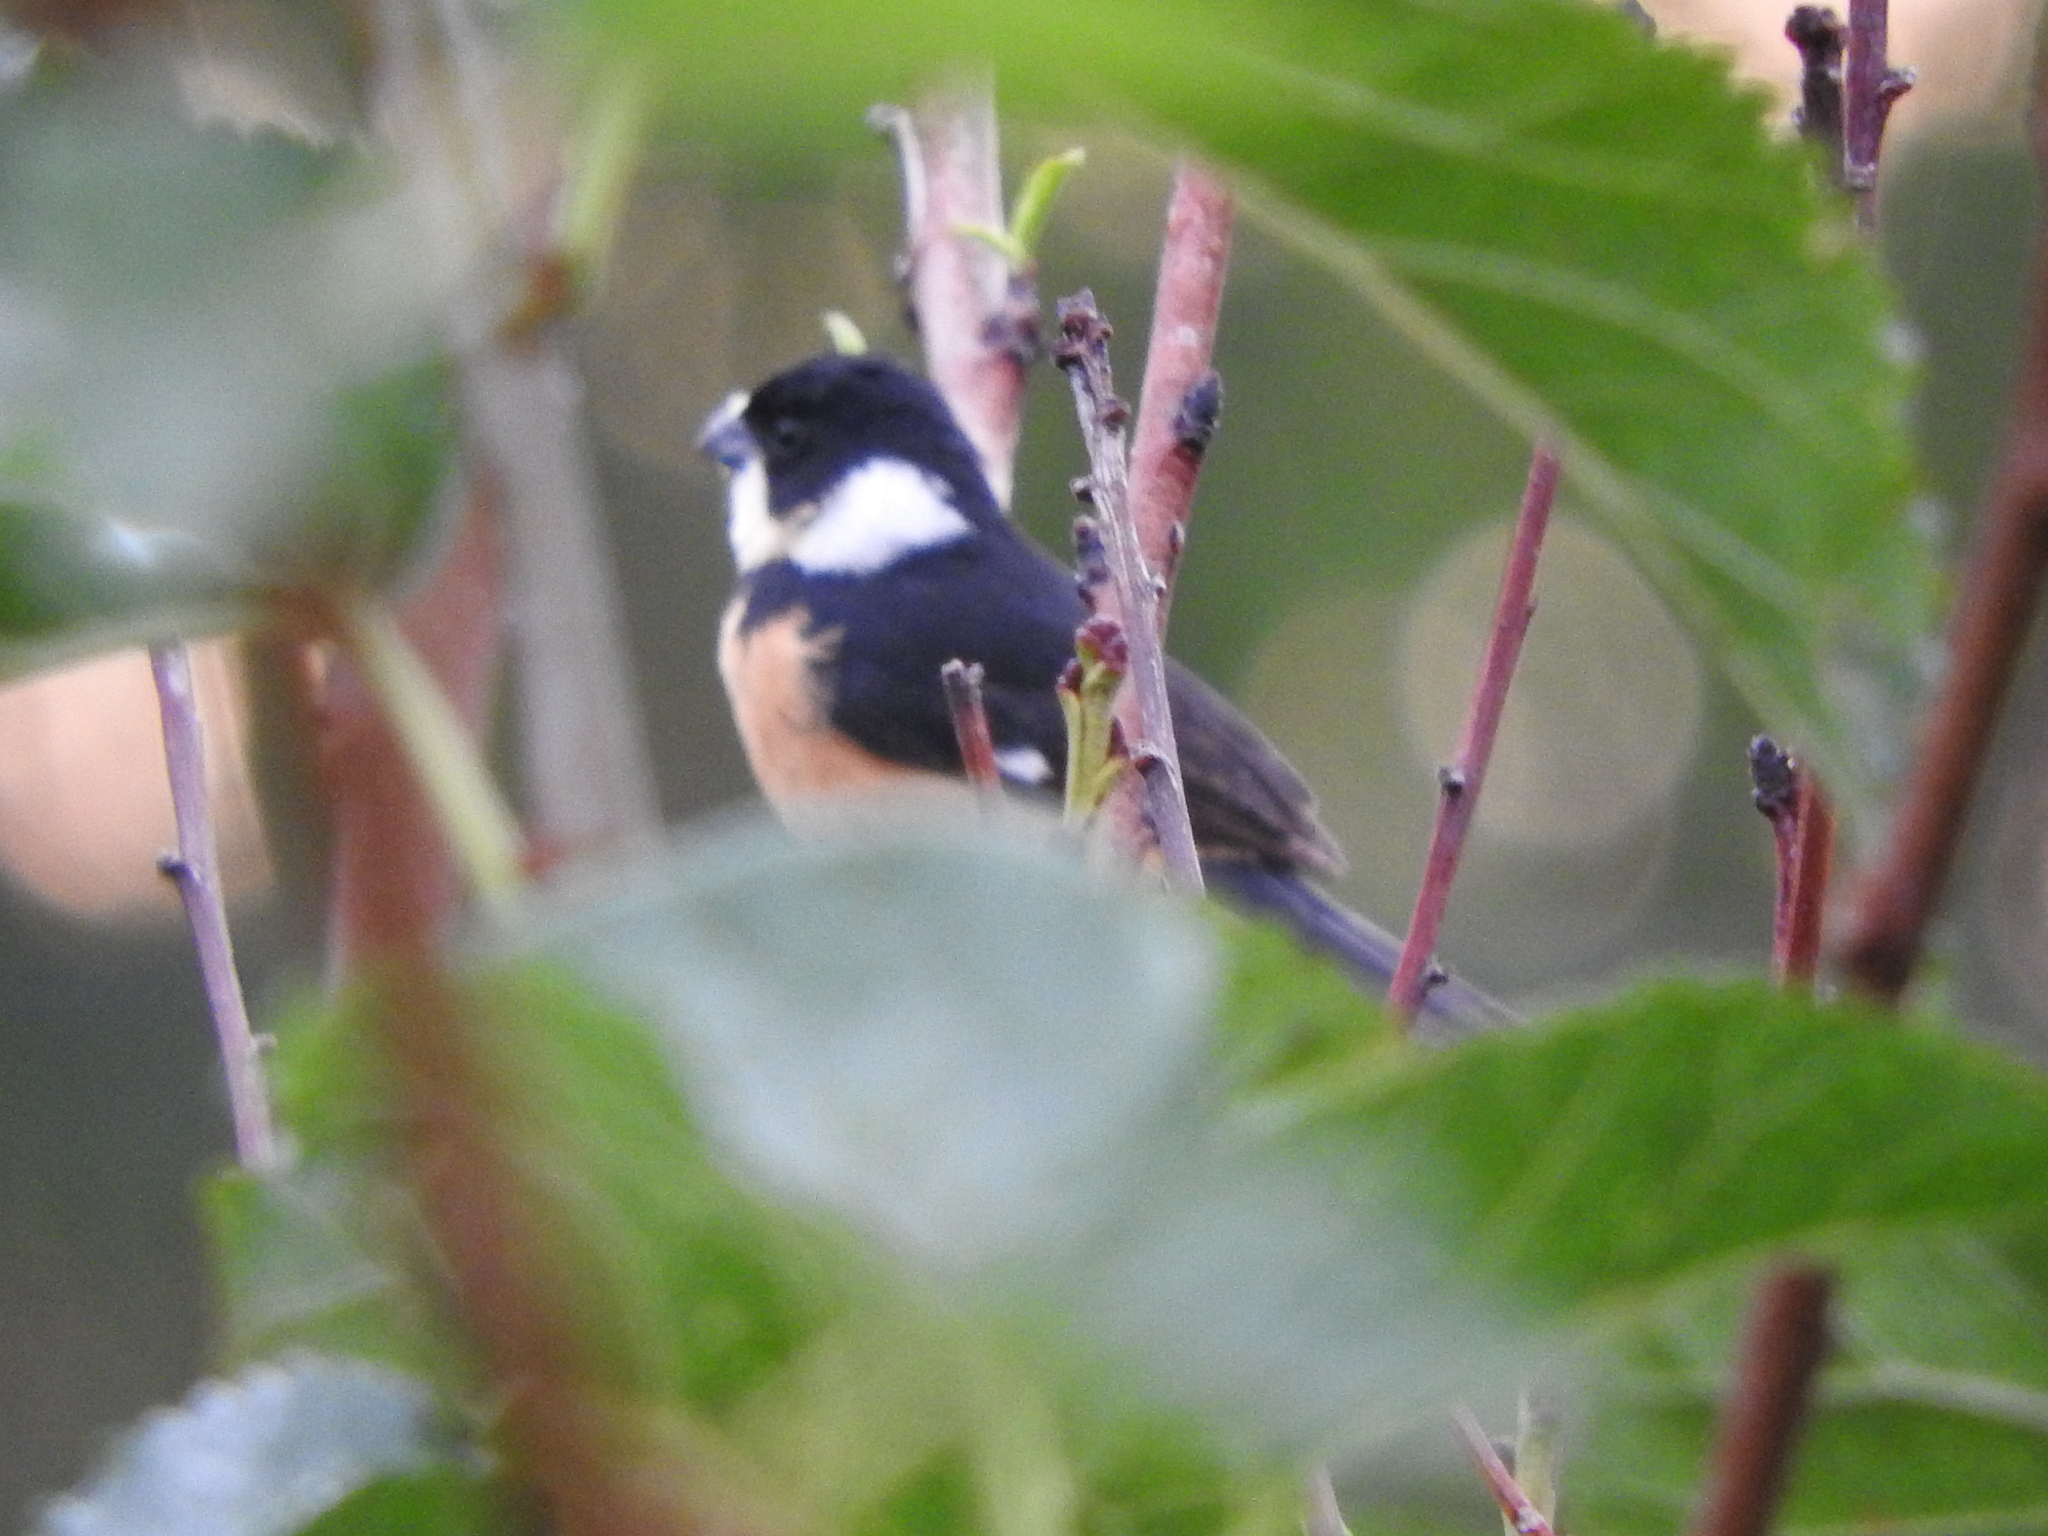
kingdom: Animalia
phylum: Chordata
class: Aves
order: Passeriformes
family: Thraupidae
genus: Sporophila
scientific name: Sporophila torqueola
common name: White-collared seedeater
